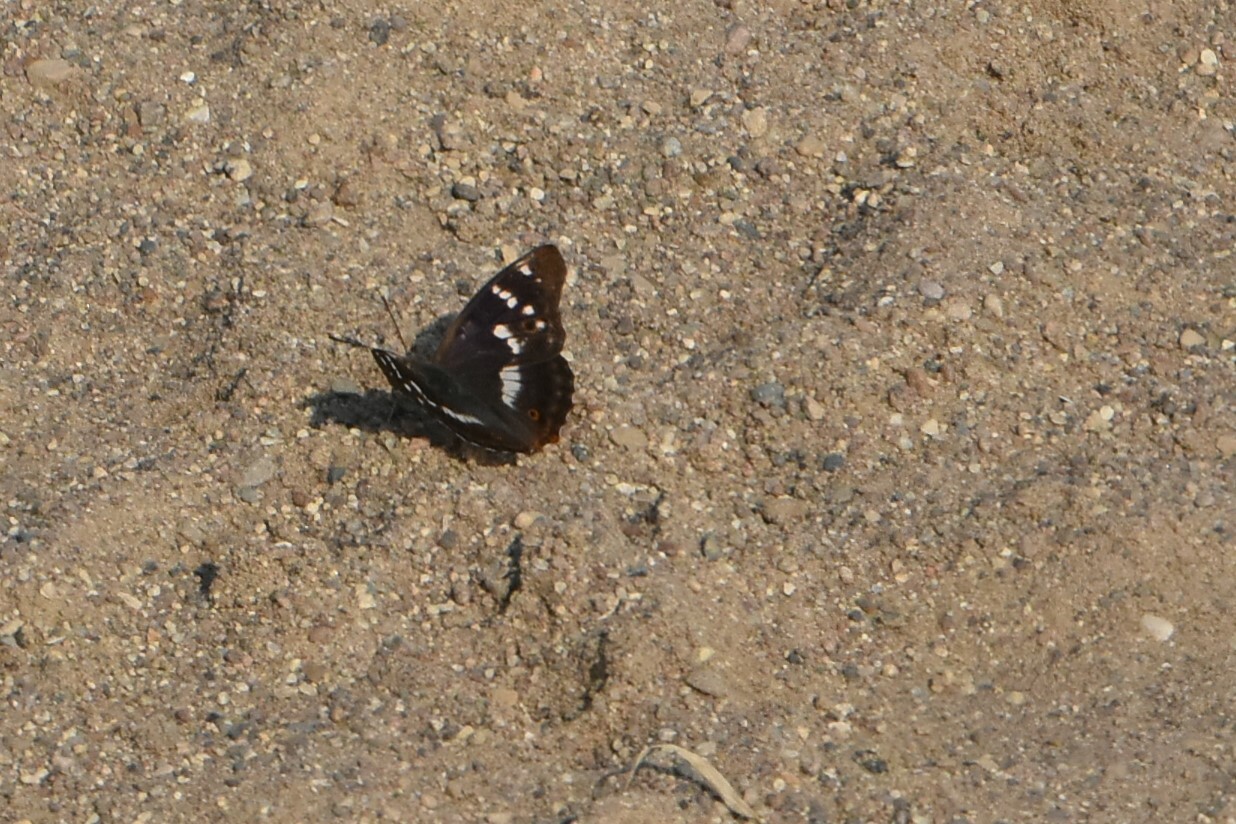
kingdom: Animalia
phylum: Arthropoda
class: Insecta
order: Lepidoptera
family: Nymphalidae
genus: Apatura
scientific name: Apatura ilia
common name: Lesser purple emperor
